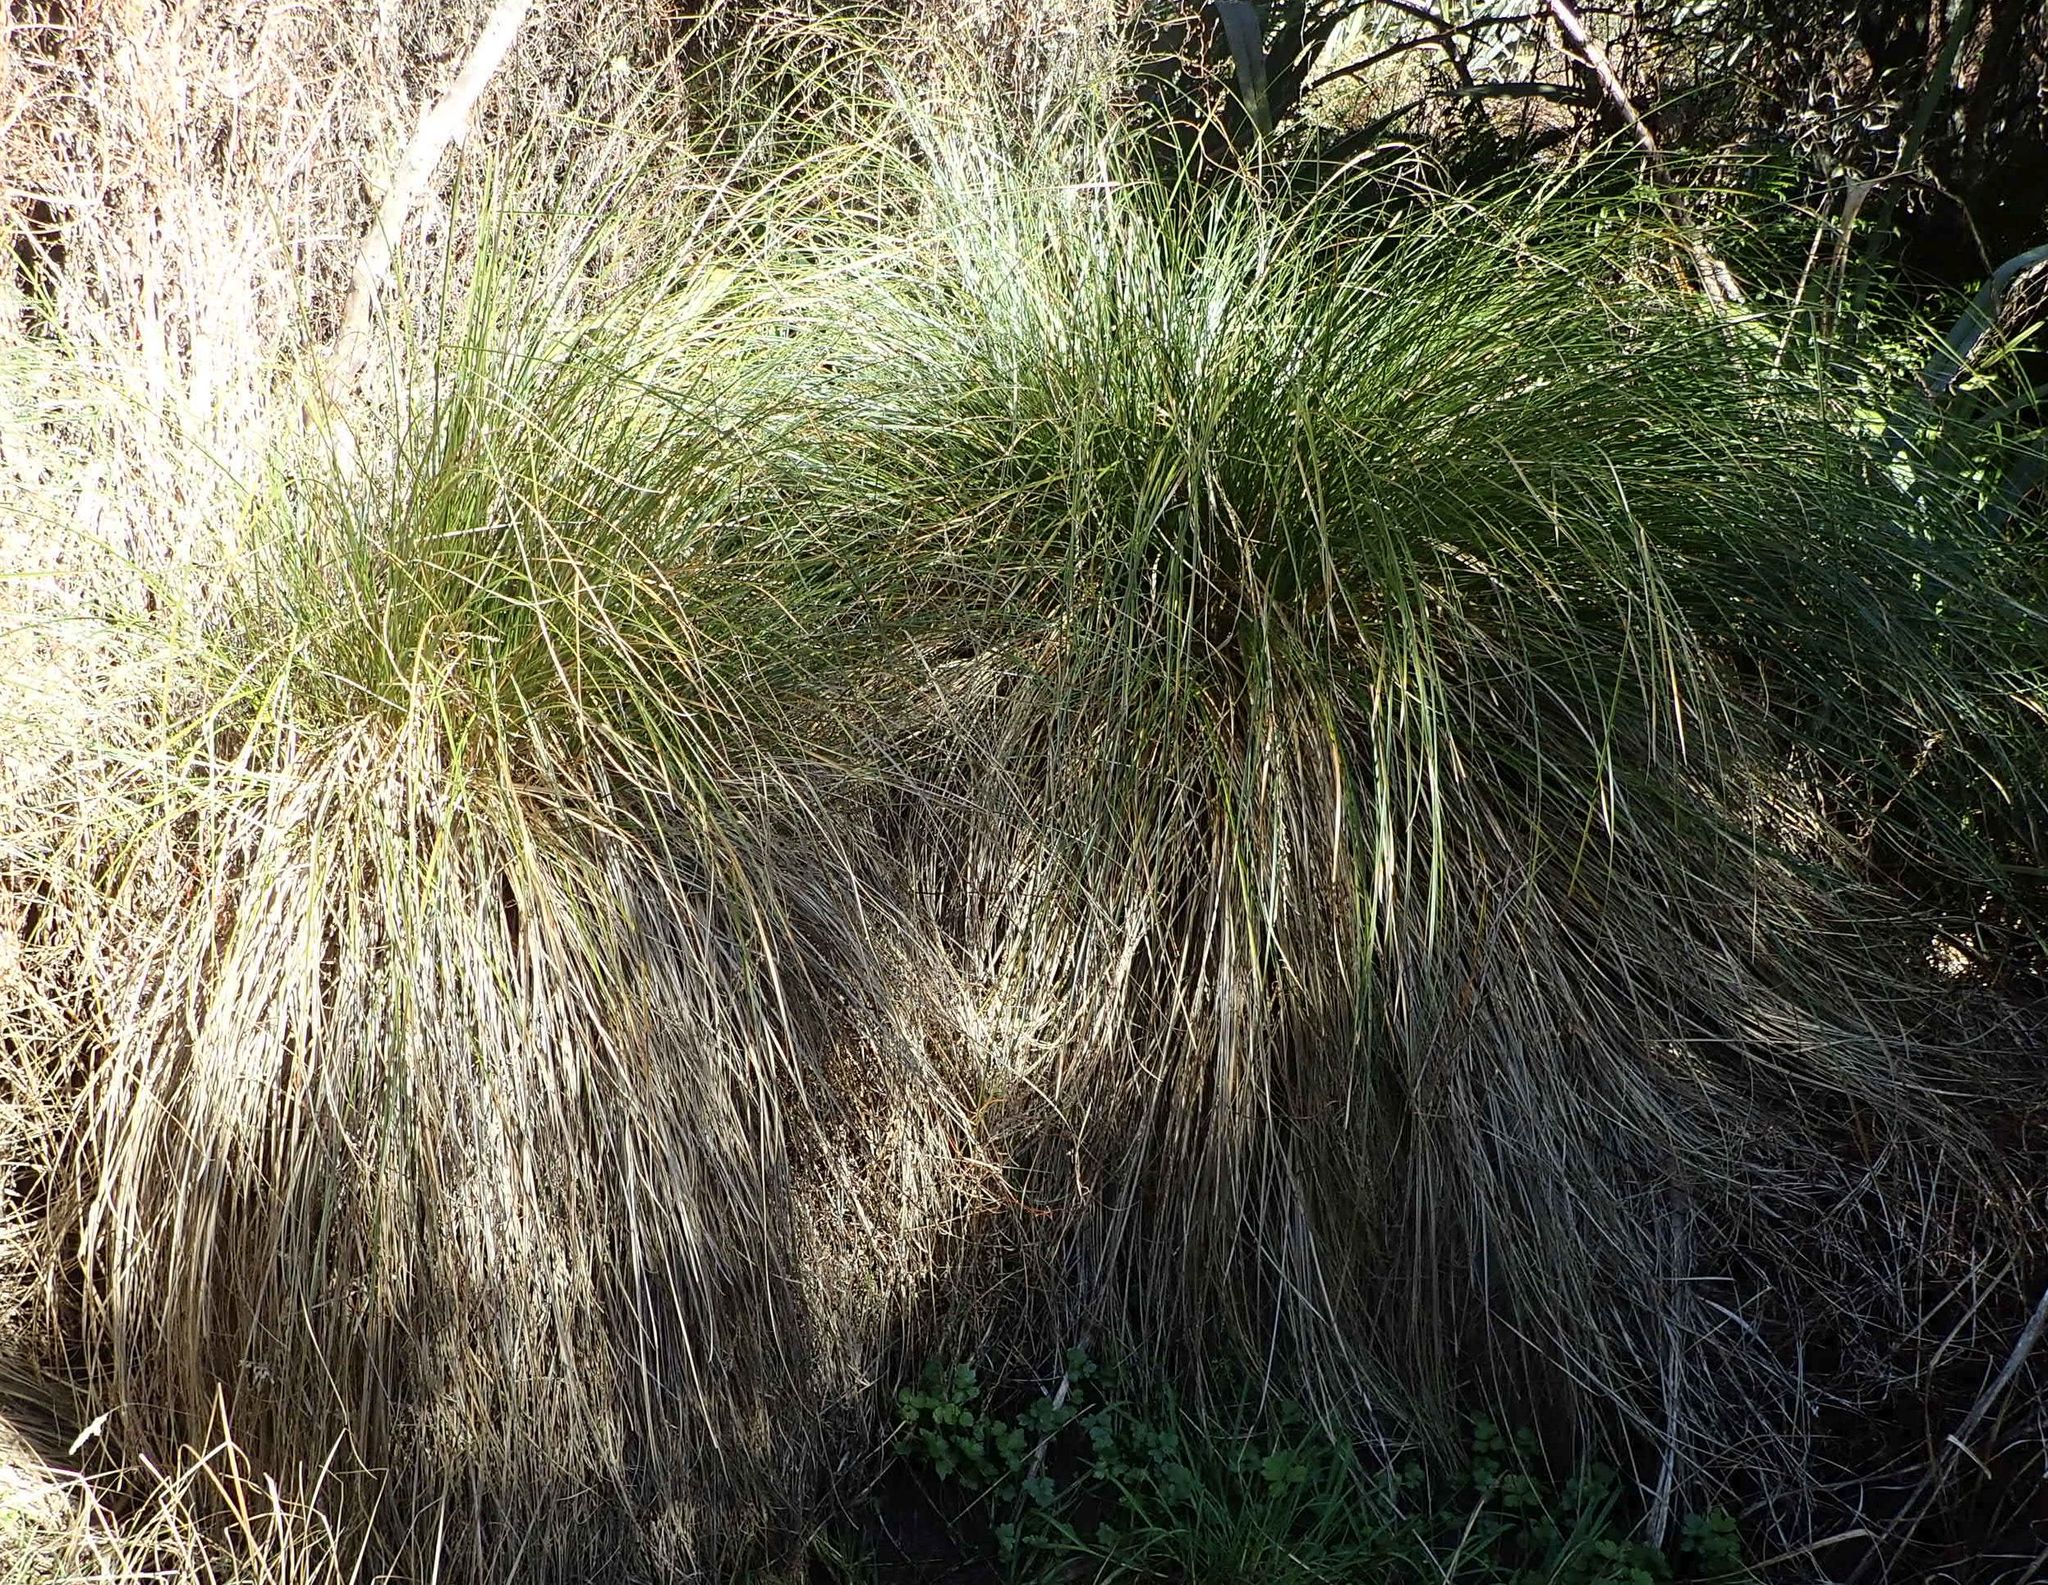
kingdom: Plantae
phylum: Tracheophyta
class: Liliopsida
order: Poales
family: Cyperaceae
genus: Carex
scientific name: Carex secta
